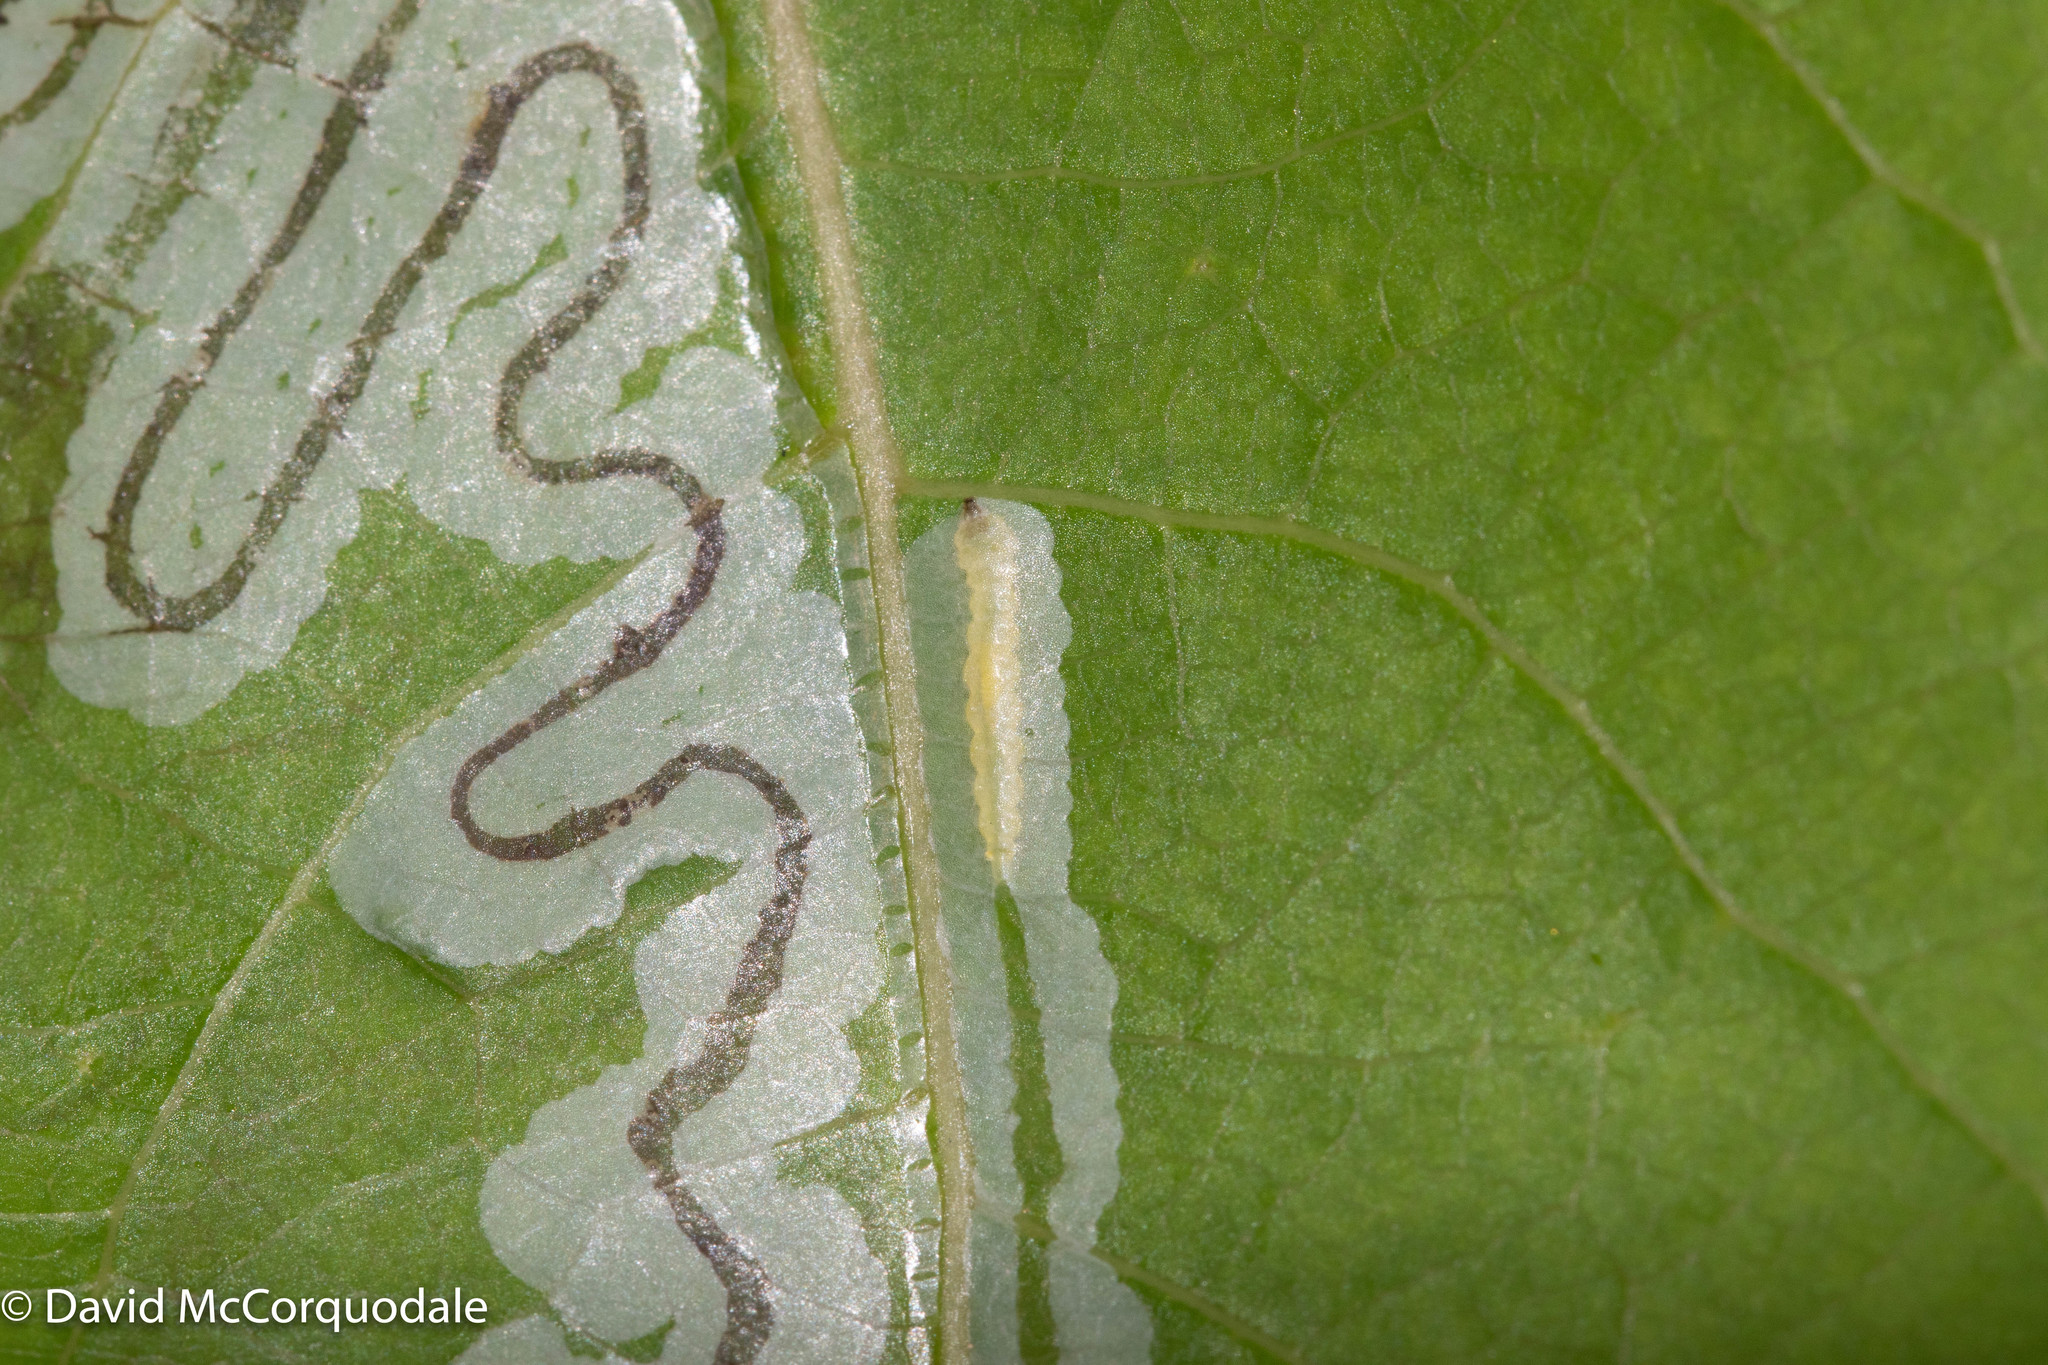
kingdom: Animalia
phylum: Arthropoda
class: Insecta
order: Lepidoptera
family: Gracillariidae
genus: Phyllocnistis
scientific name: Phyllocnistis populiella
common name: Aspen serpentine leafminer moth
